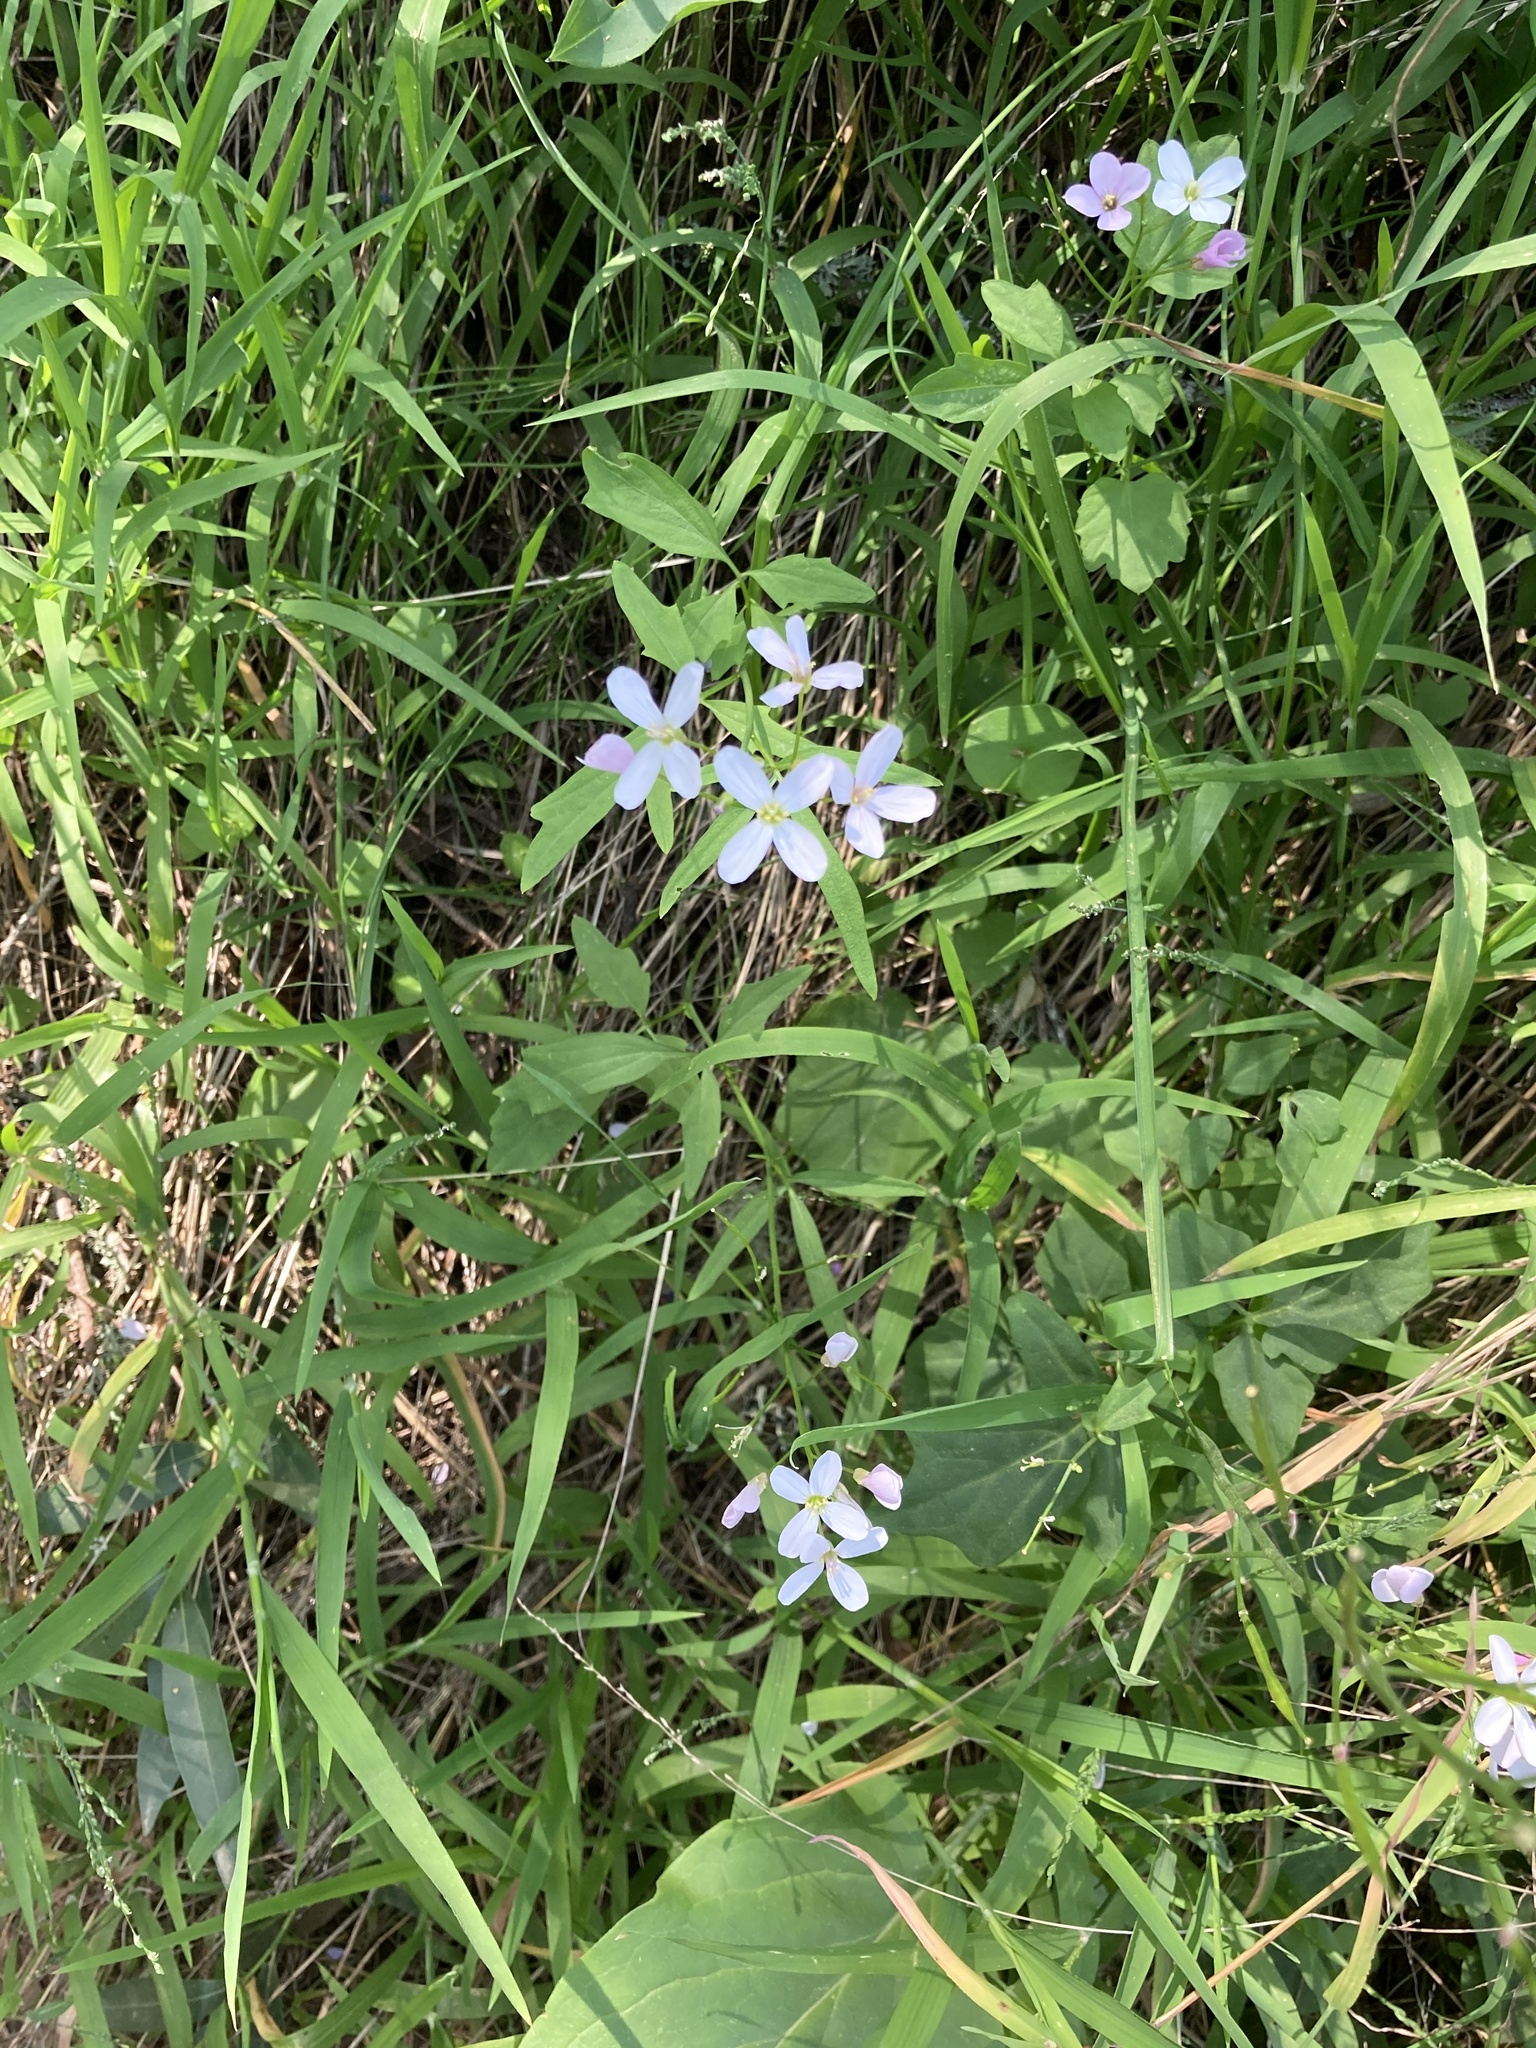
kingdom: Plantae
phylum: Tracheophyta
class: Magnoliopsida
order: Brassicales
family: Brassicaceae
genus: Cardamine
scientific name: Cardamine californica
